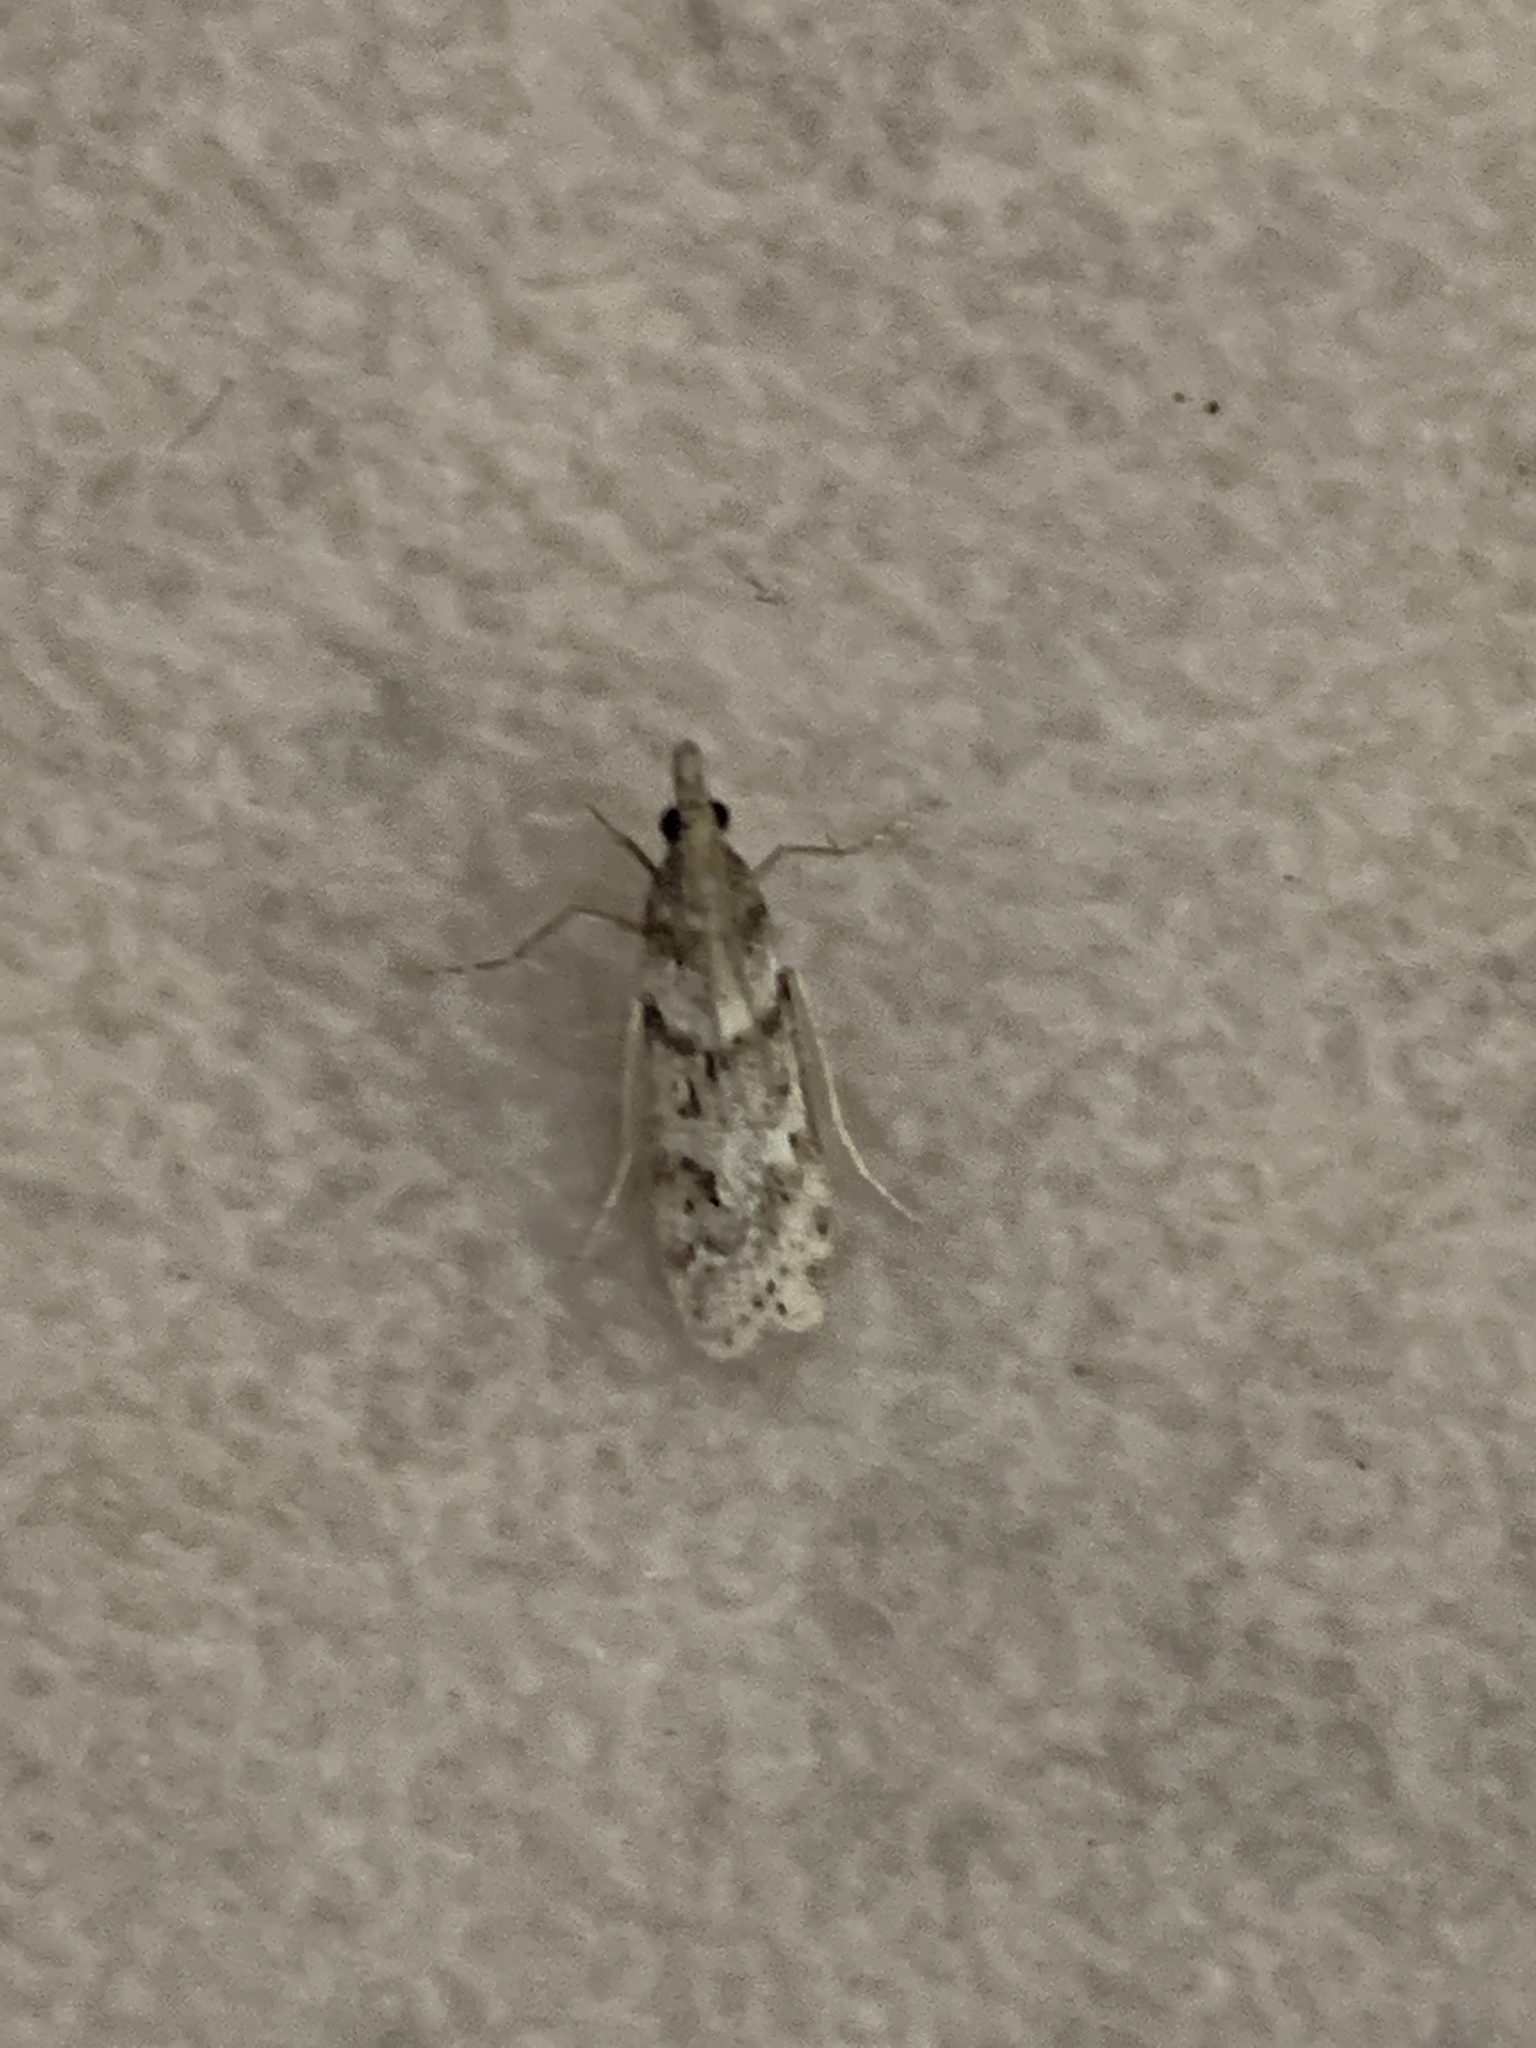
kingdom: Animalia
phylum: Arthropoda
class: Insecta
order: Lepidoptera
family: Crambidae
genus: Eudonia
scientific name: Eudonia angustea
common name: Narrow-winged grey
